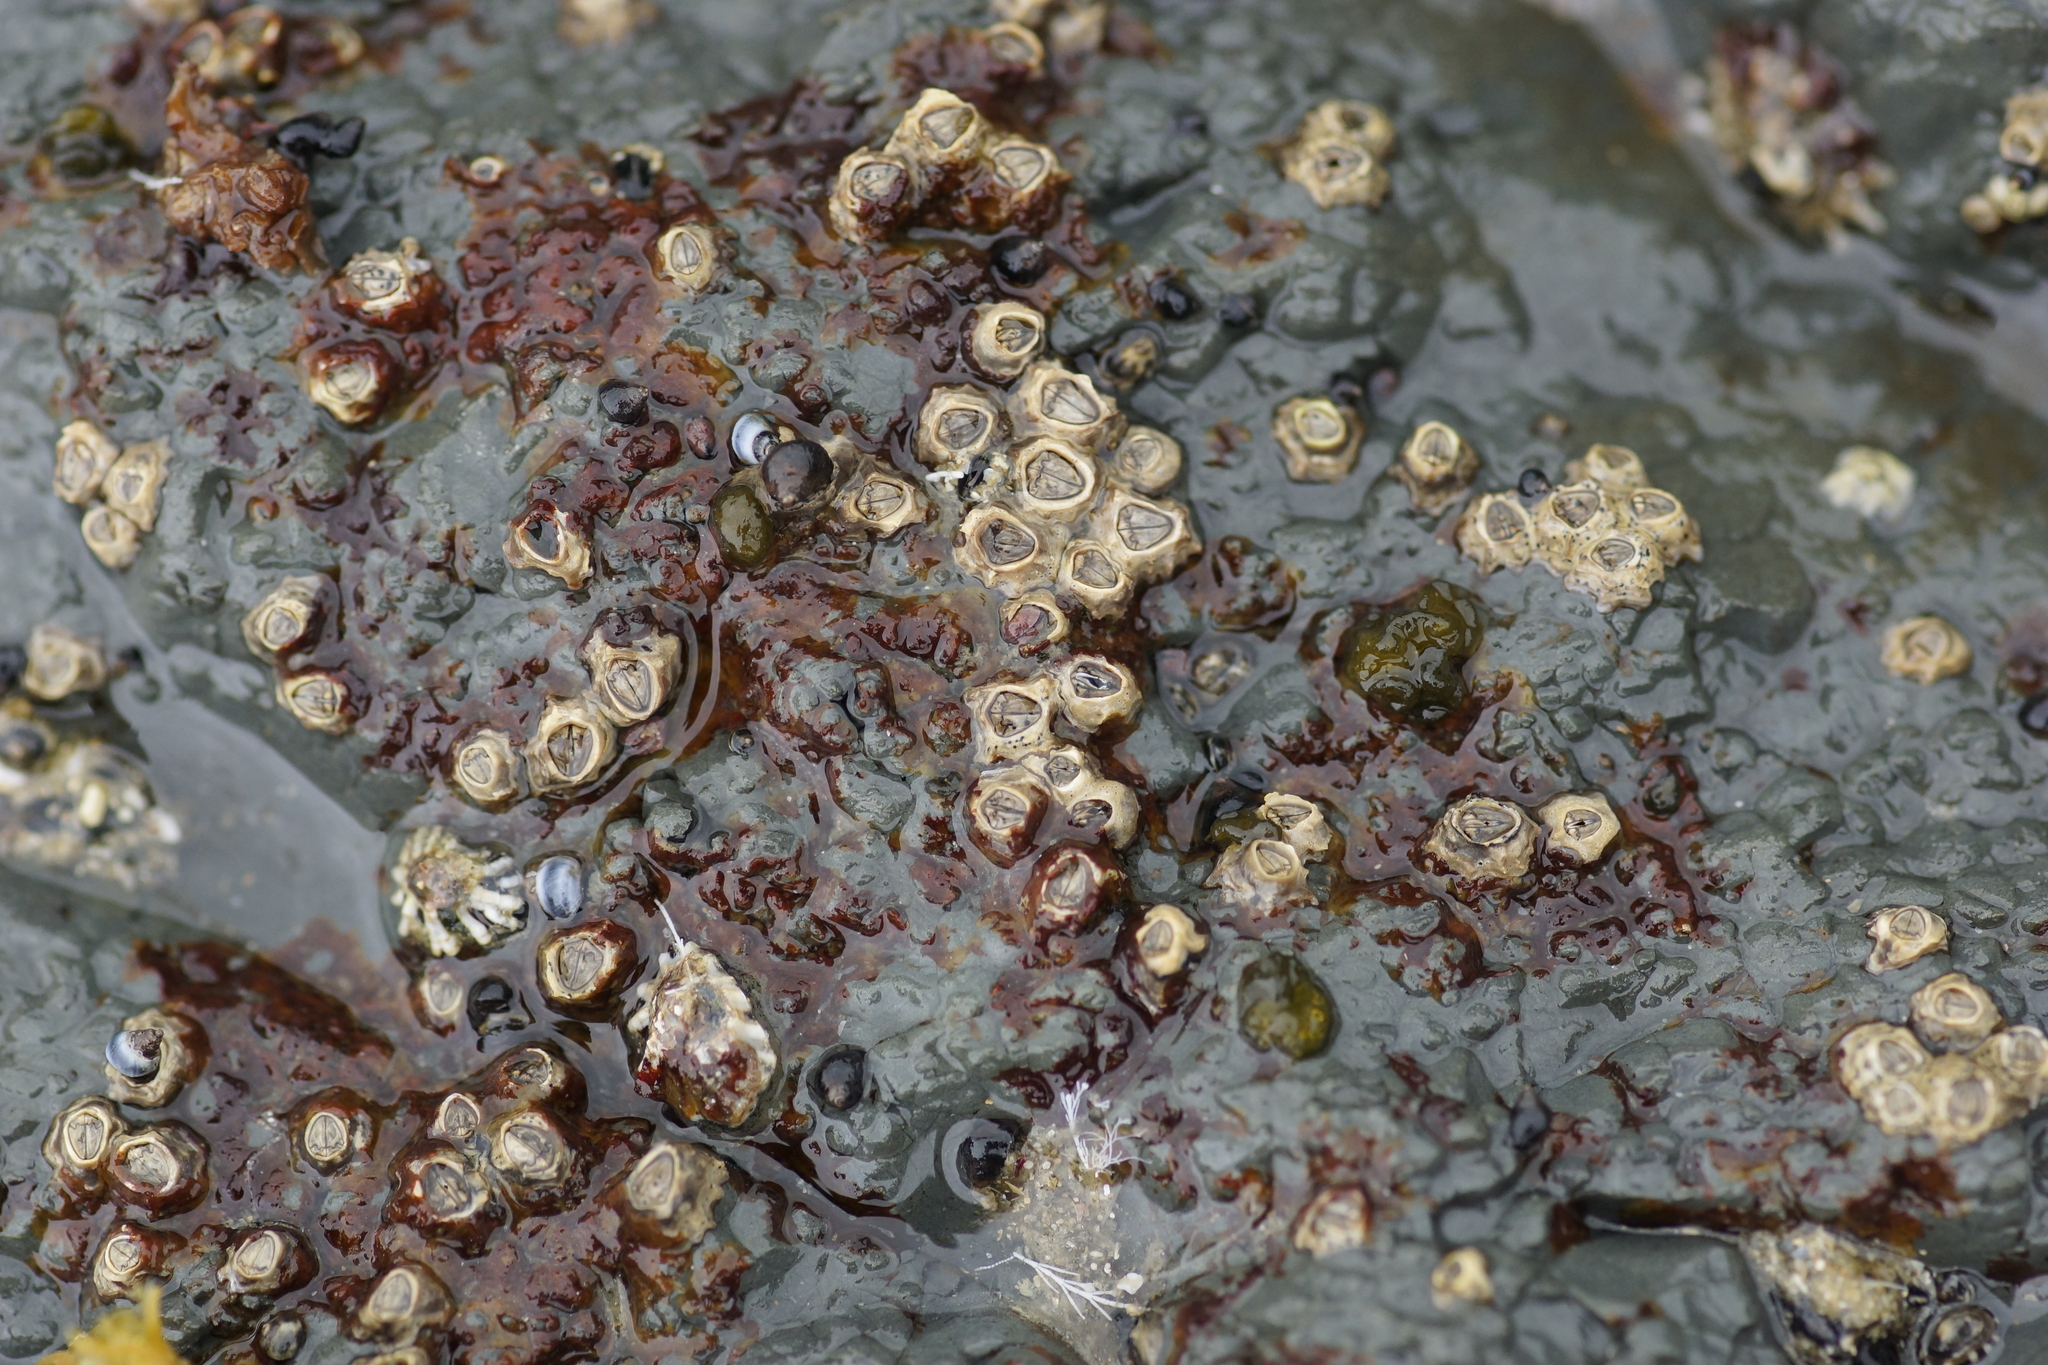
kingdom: Animalia
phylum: Arthropoda
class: Maxillopoda
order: Sessilia
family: Chthamalidae
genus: Chamaesipho
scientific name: Chamaesipho columna
